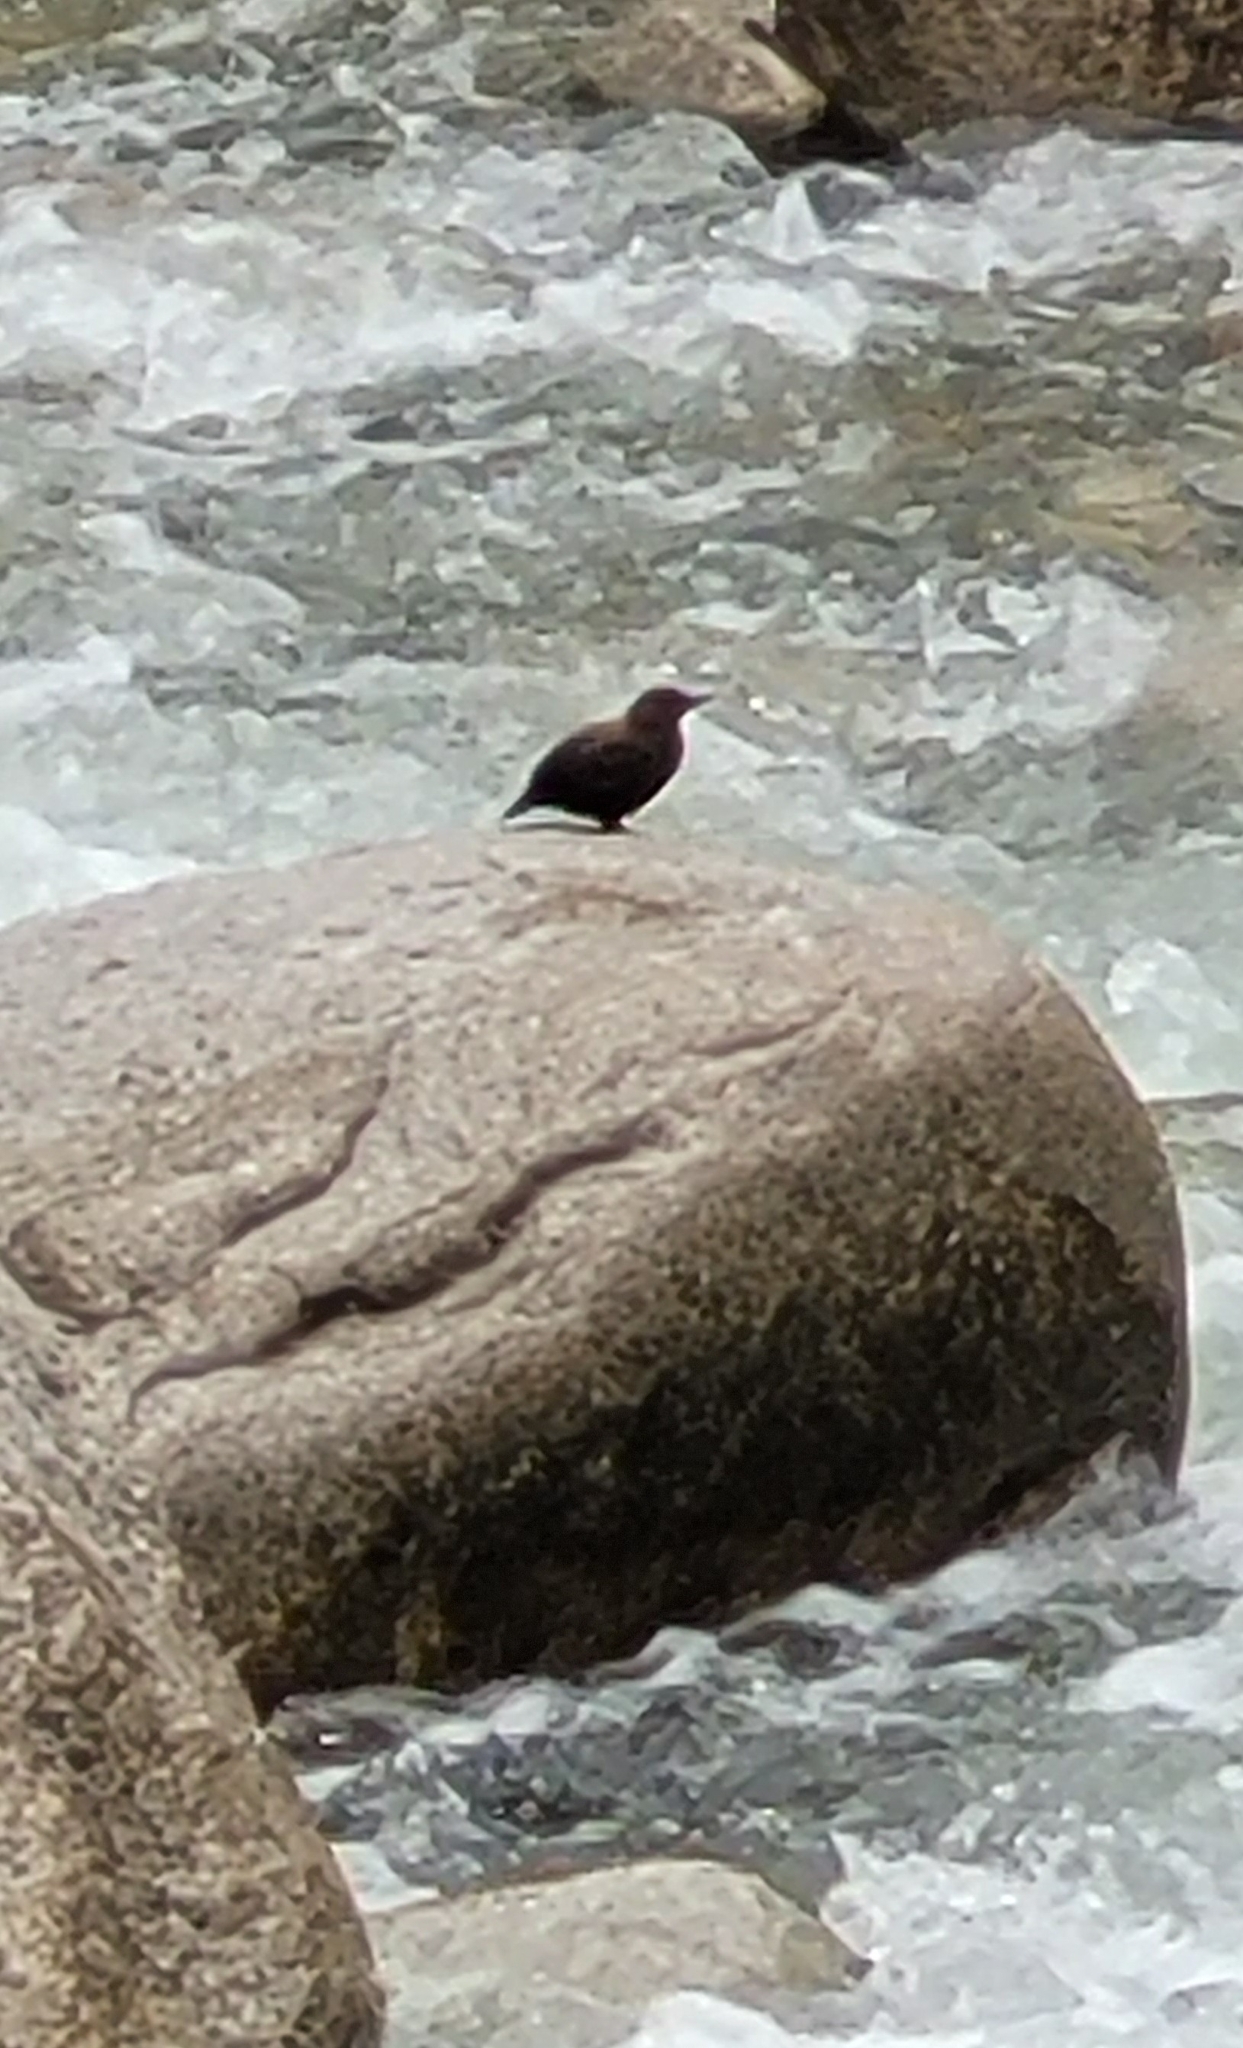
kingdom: Animalia
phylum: Chordata
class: Aves
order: Passeriformes
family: Cinclidae
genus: Cinclus
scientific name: Cinclus pallasii
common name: Brown dipper
